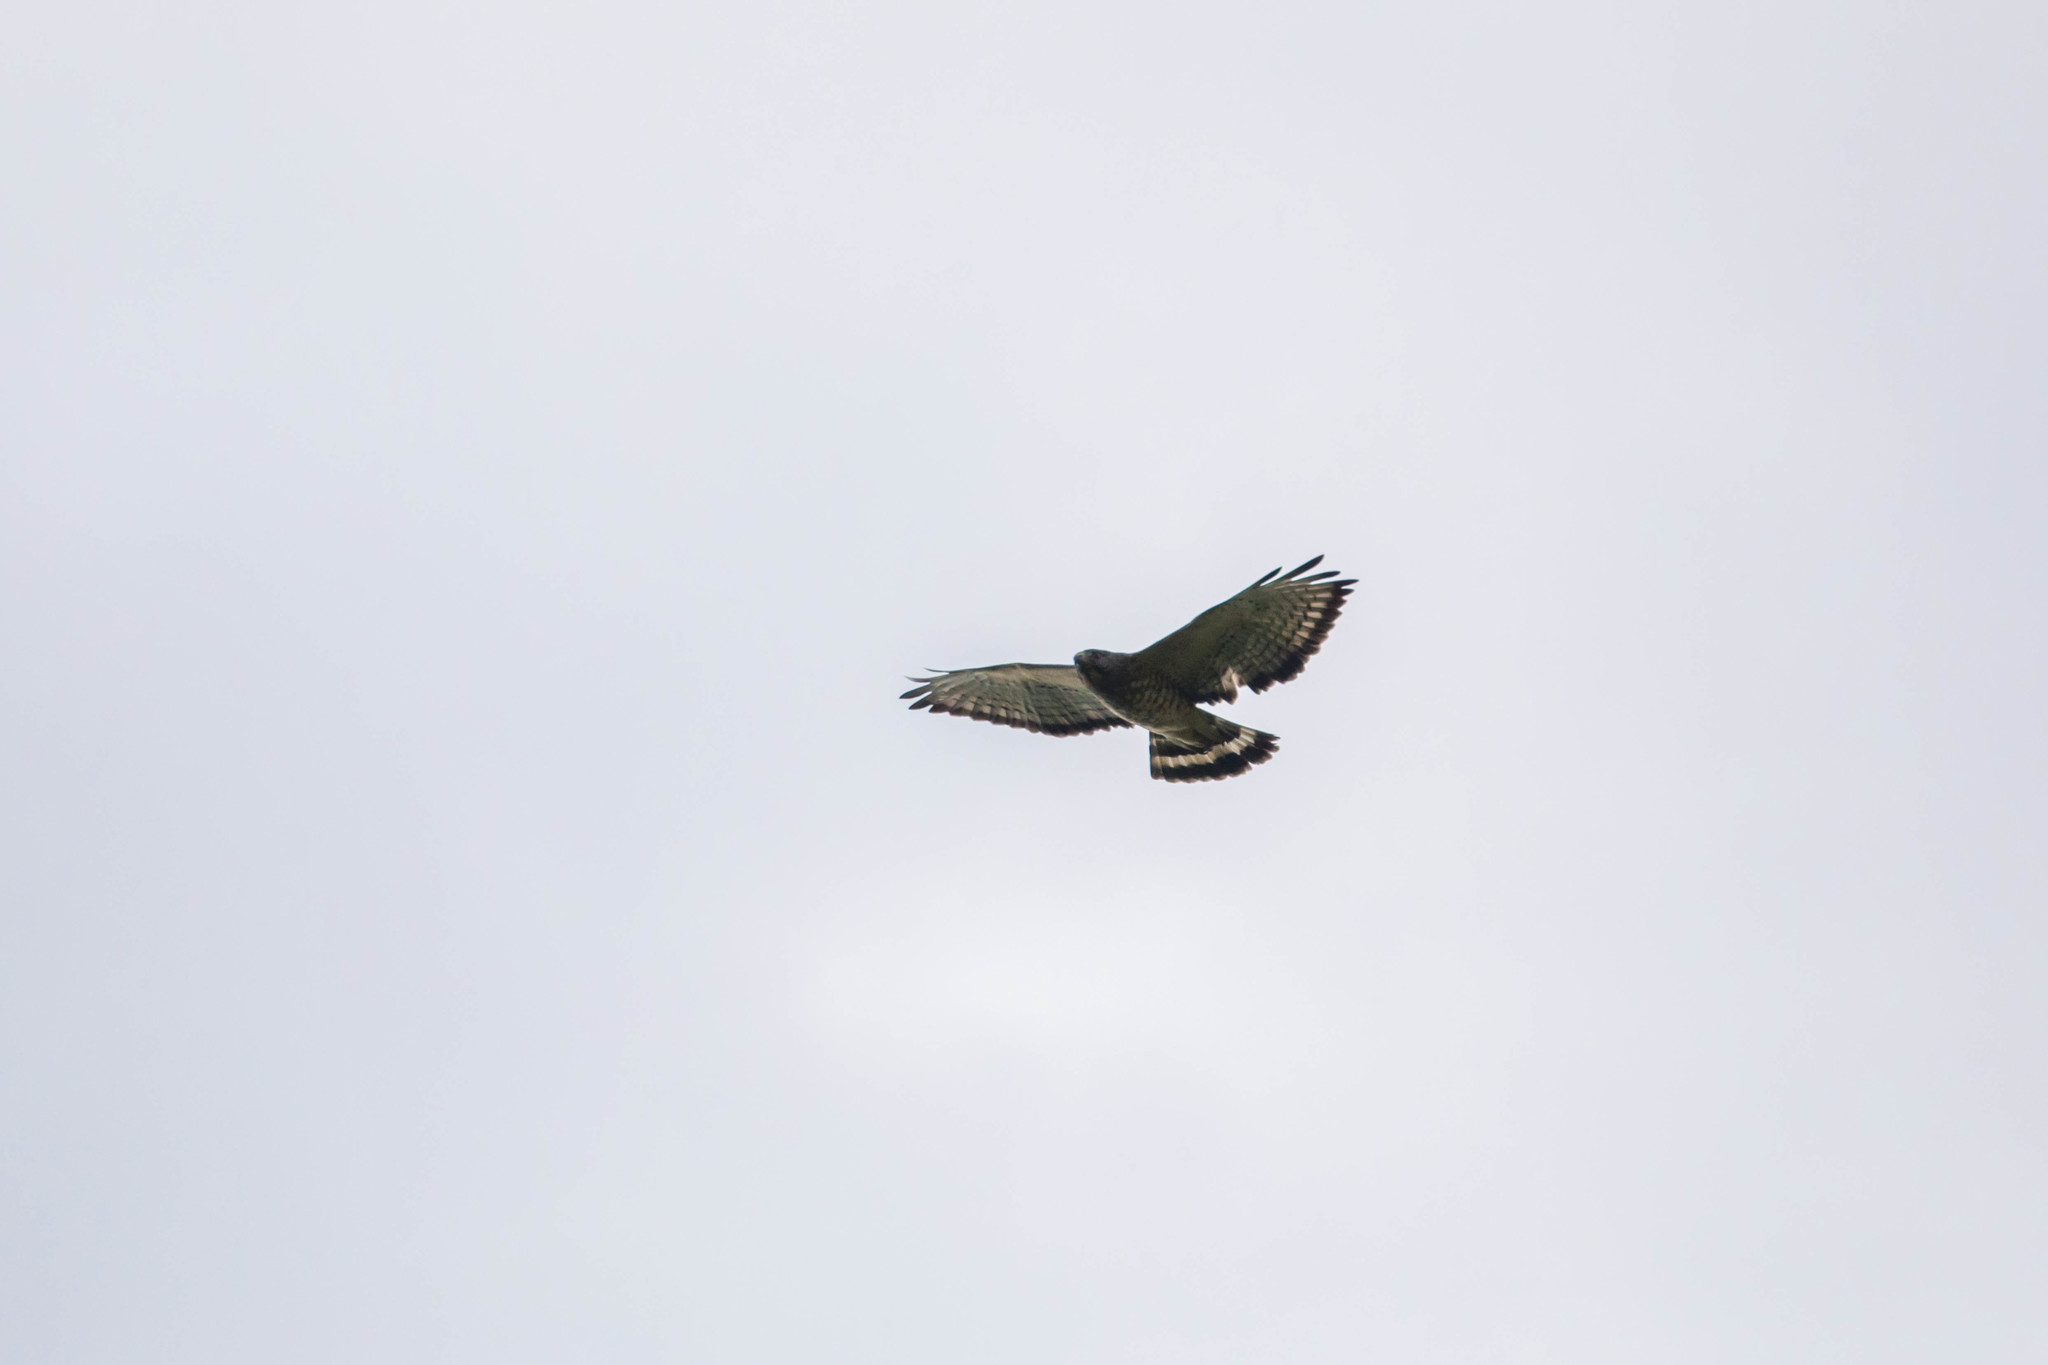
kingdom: Animalia
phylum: Chordata
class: Aves
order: Accipitriformes
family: Accipitridae
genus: Buteo
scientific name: Buteo platypterus
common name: Broad-winged hawk
